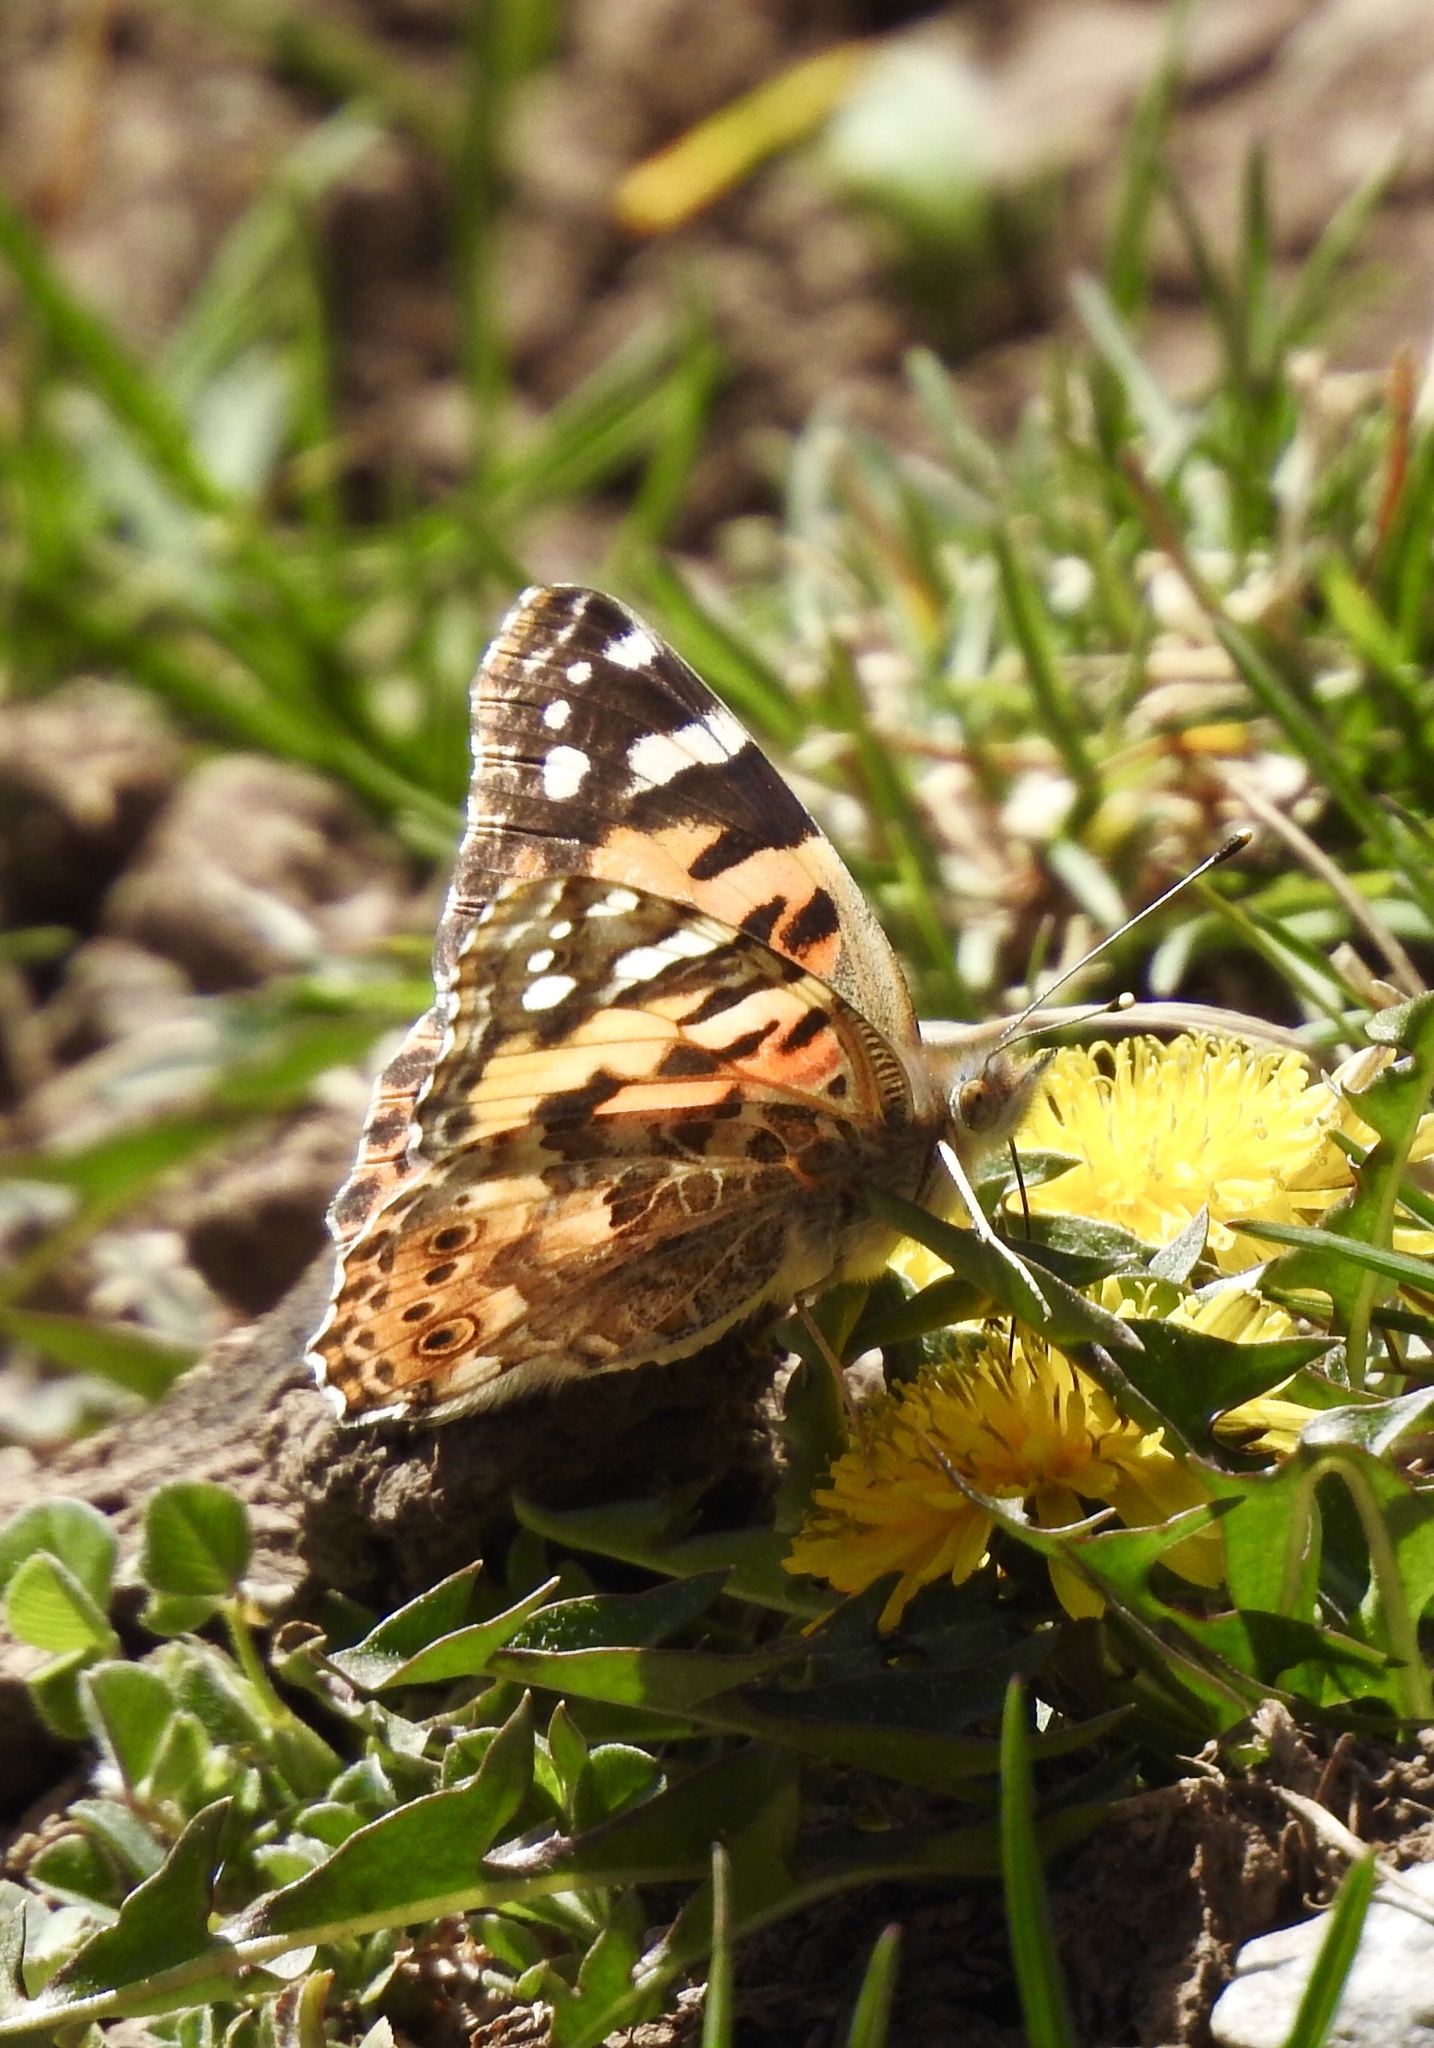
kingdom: Animalia
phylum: Arthropoda
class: Insecta
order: Lepidoptera
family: Nymphalidae
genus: Vanessa
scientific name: Vanessa cardui
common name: Painted lady
